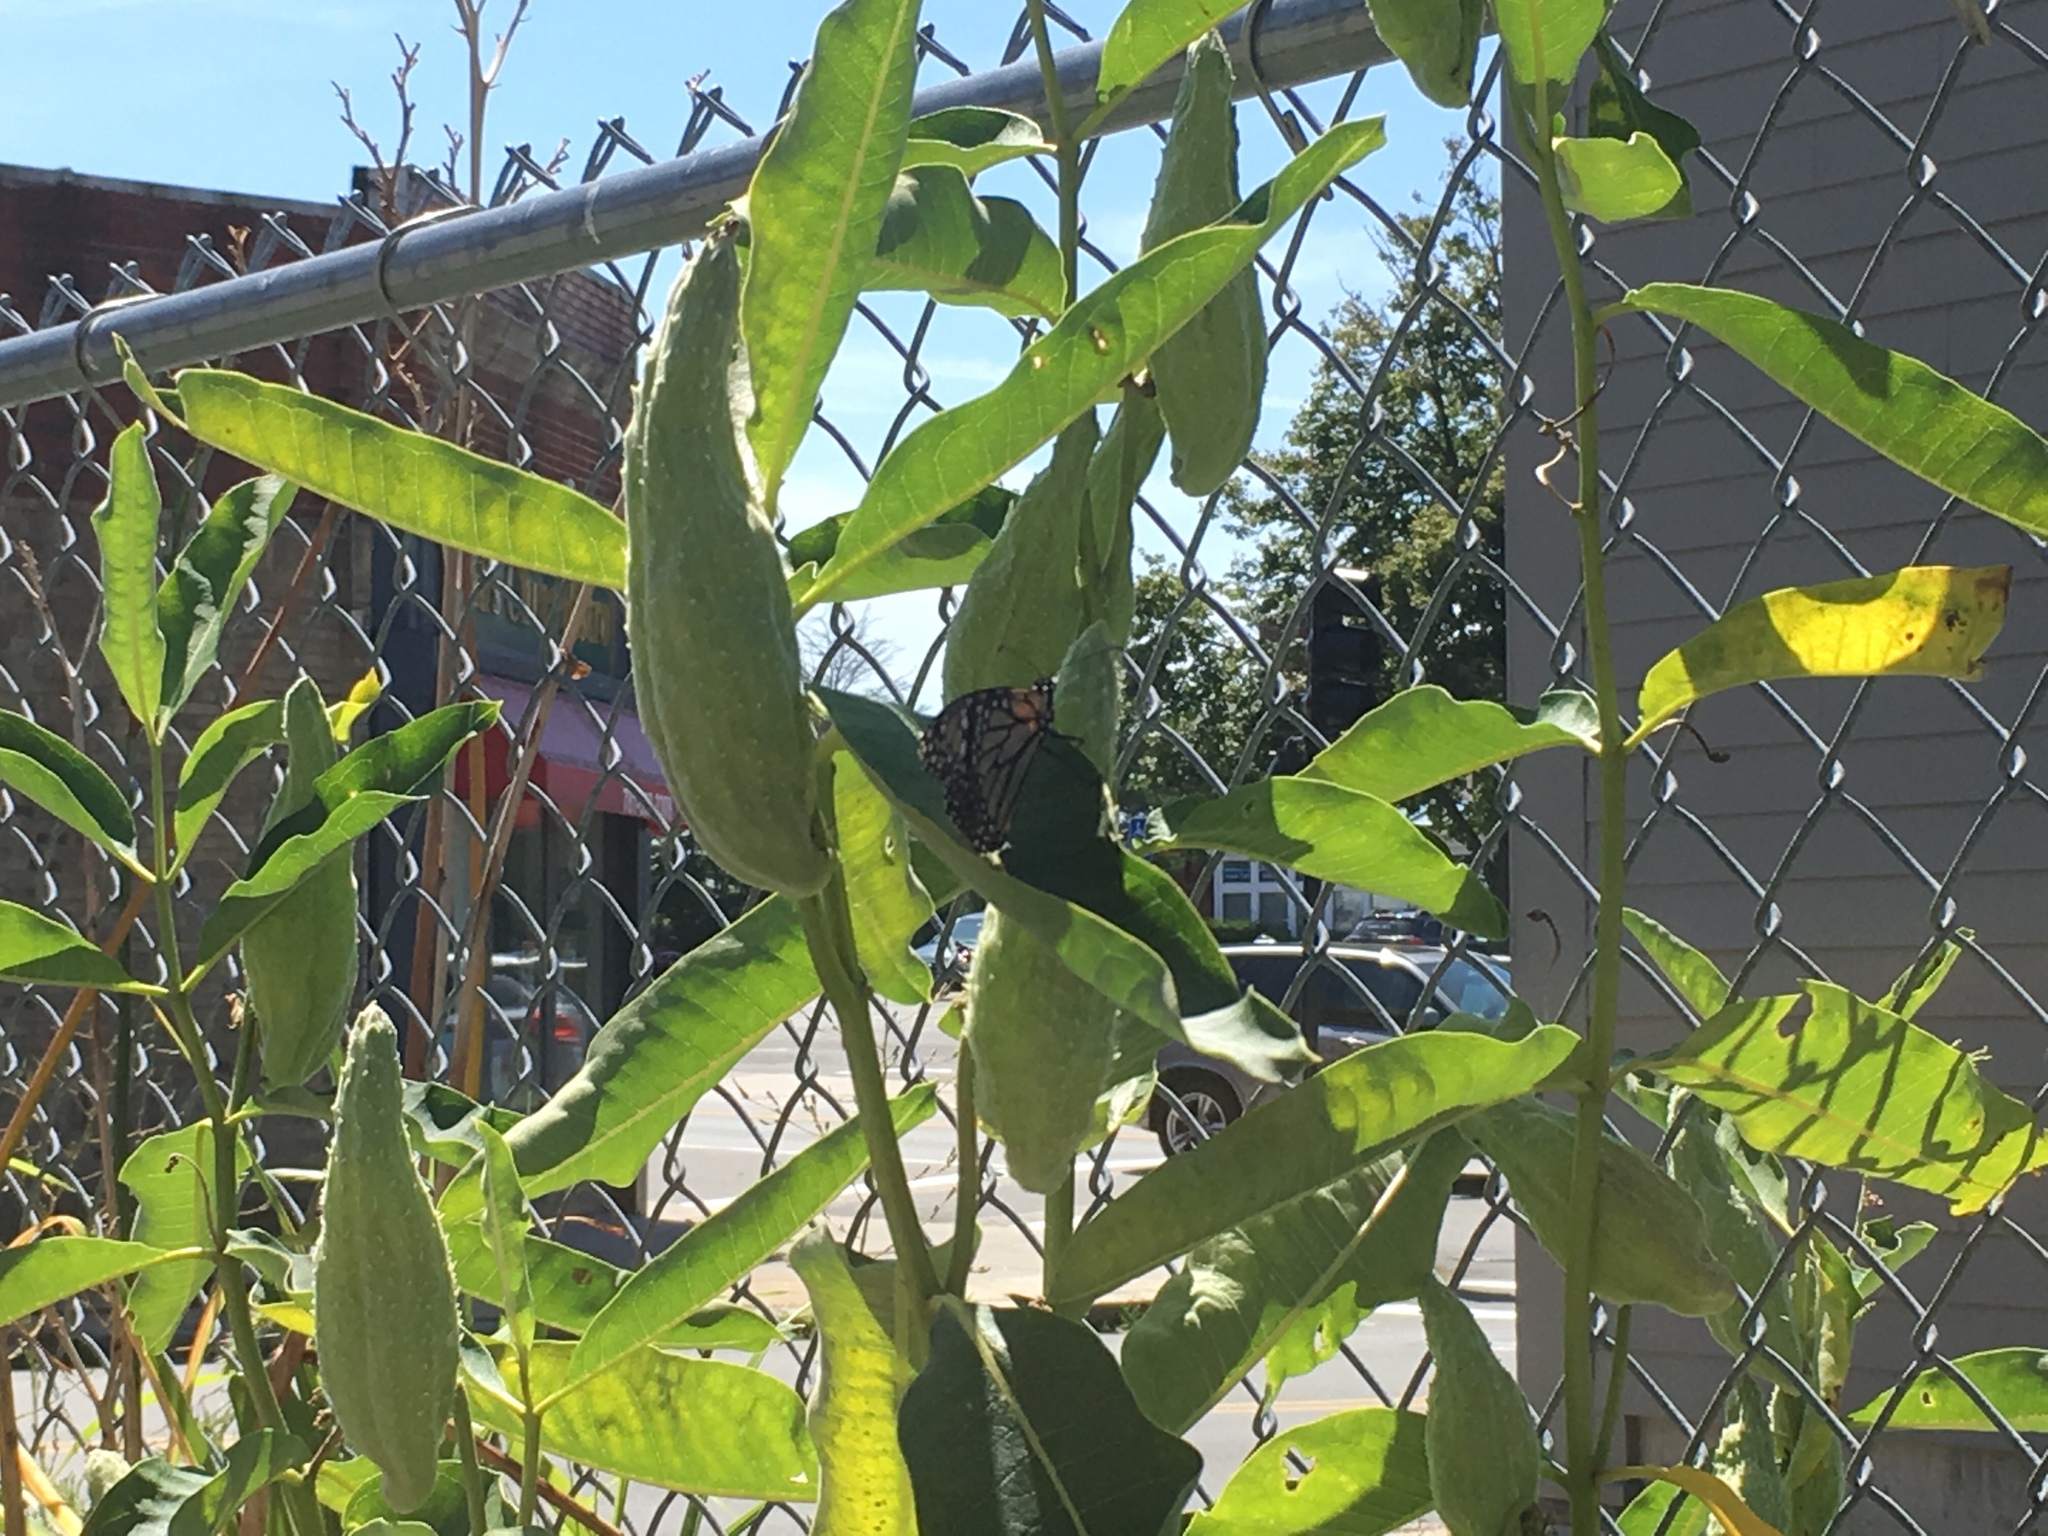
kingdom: Animalia
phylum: Arthropoda
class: Insecta
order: Lepidoptera
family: Nymphalidae
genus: Danaus
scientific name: Danaus plexippus
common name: Monarch
